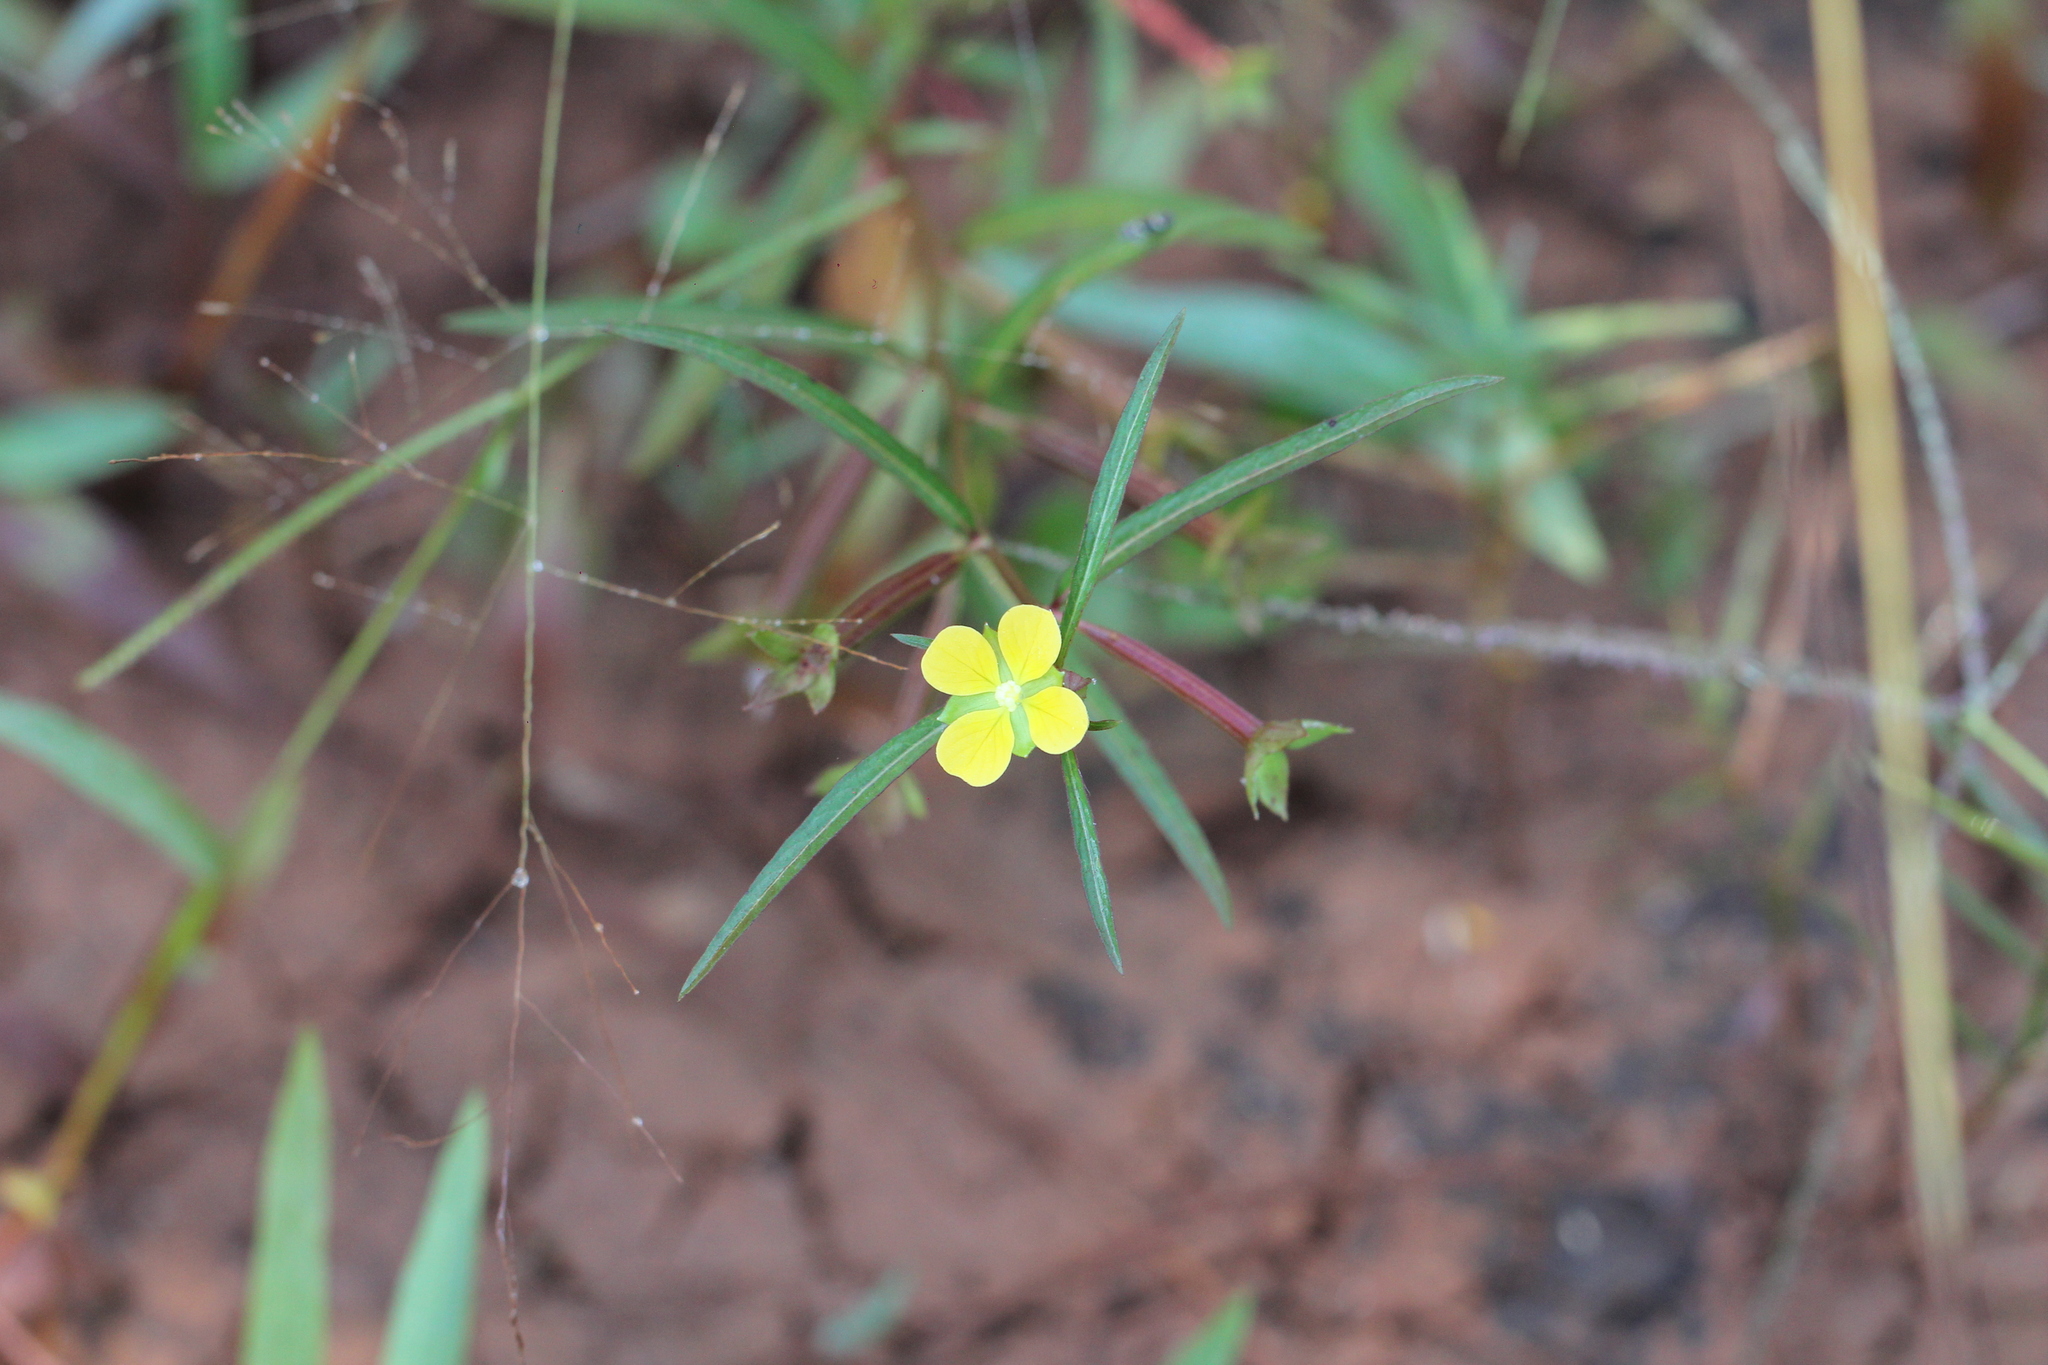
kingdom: Plantae
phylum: Tracheophyta
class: Magnoliopsida
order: Myrtales
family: Onagraceae
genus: Ludwigia
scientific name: Ludwigia leptocarpa
